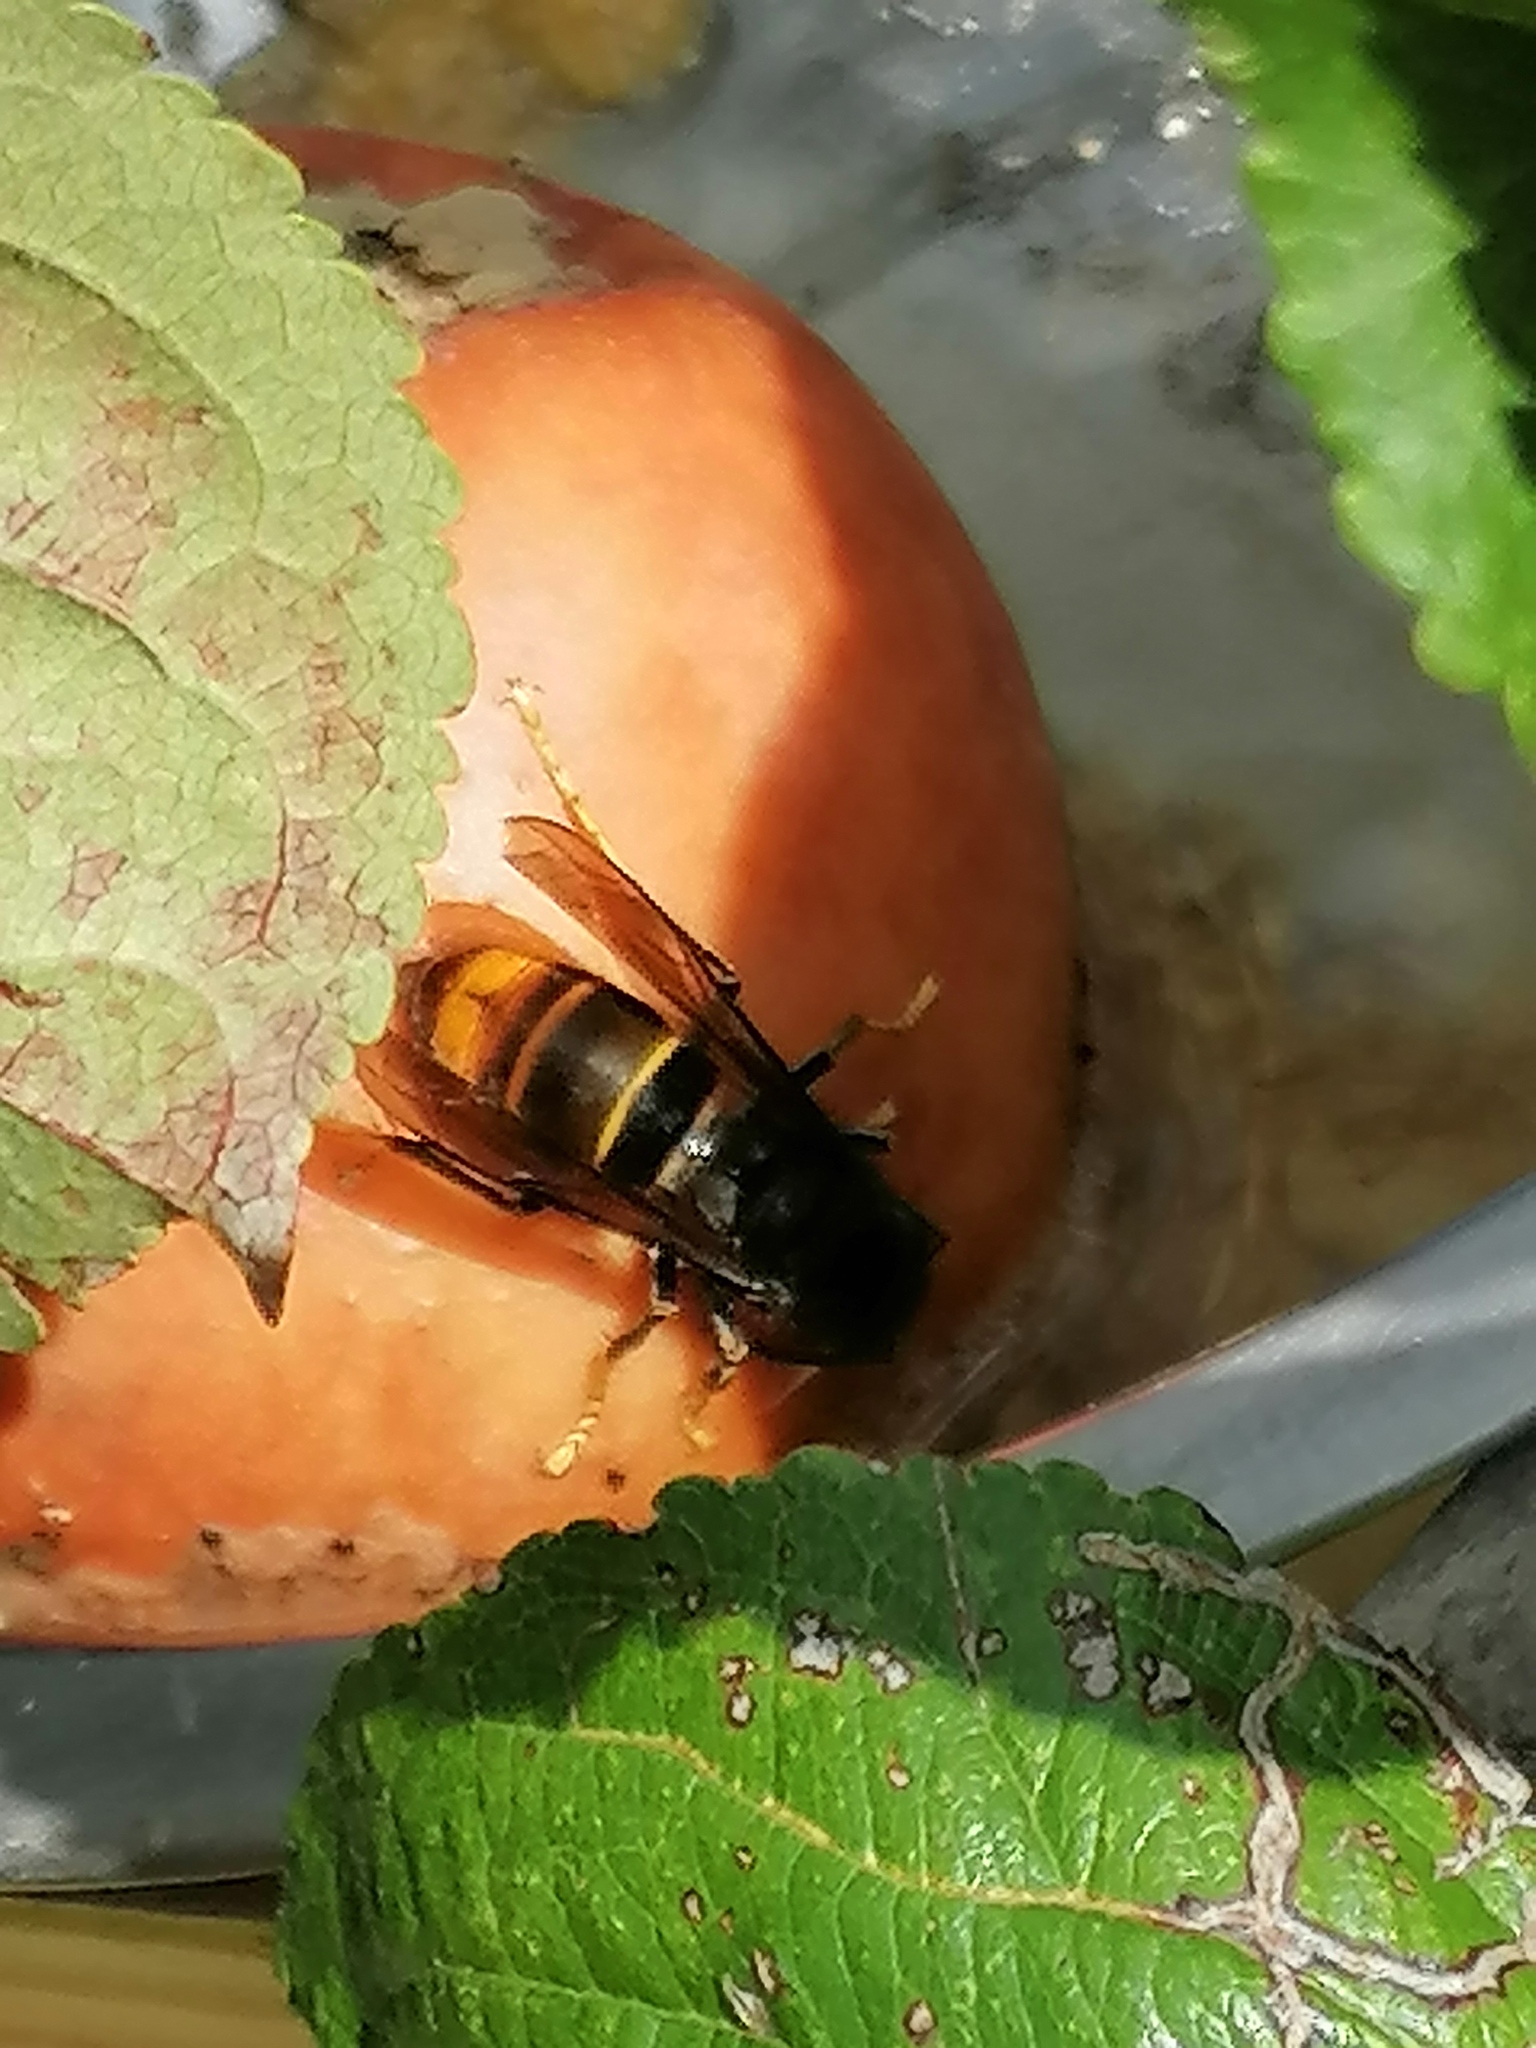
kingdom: Animalia
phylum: Arthropoda
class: Insecta
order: Hymenoptera
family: Vespidae
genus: Vespa
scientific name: Vespa velutina
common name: Asian hornet
